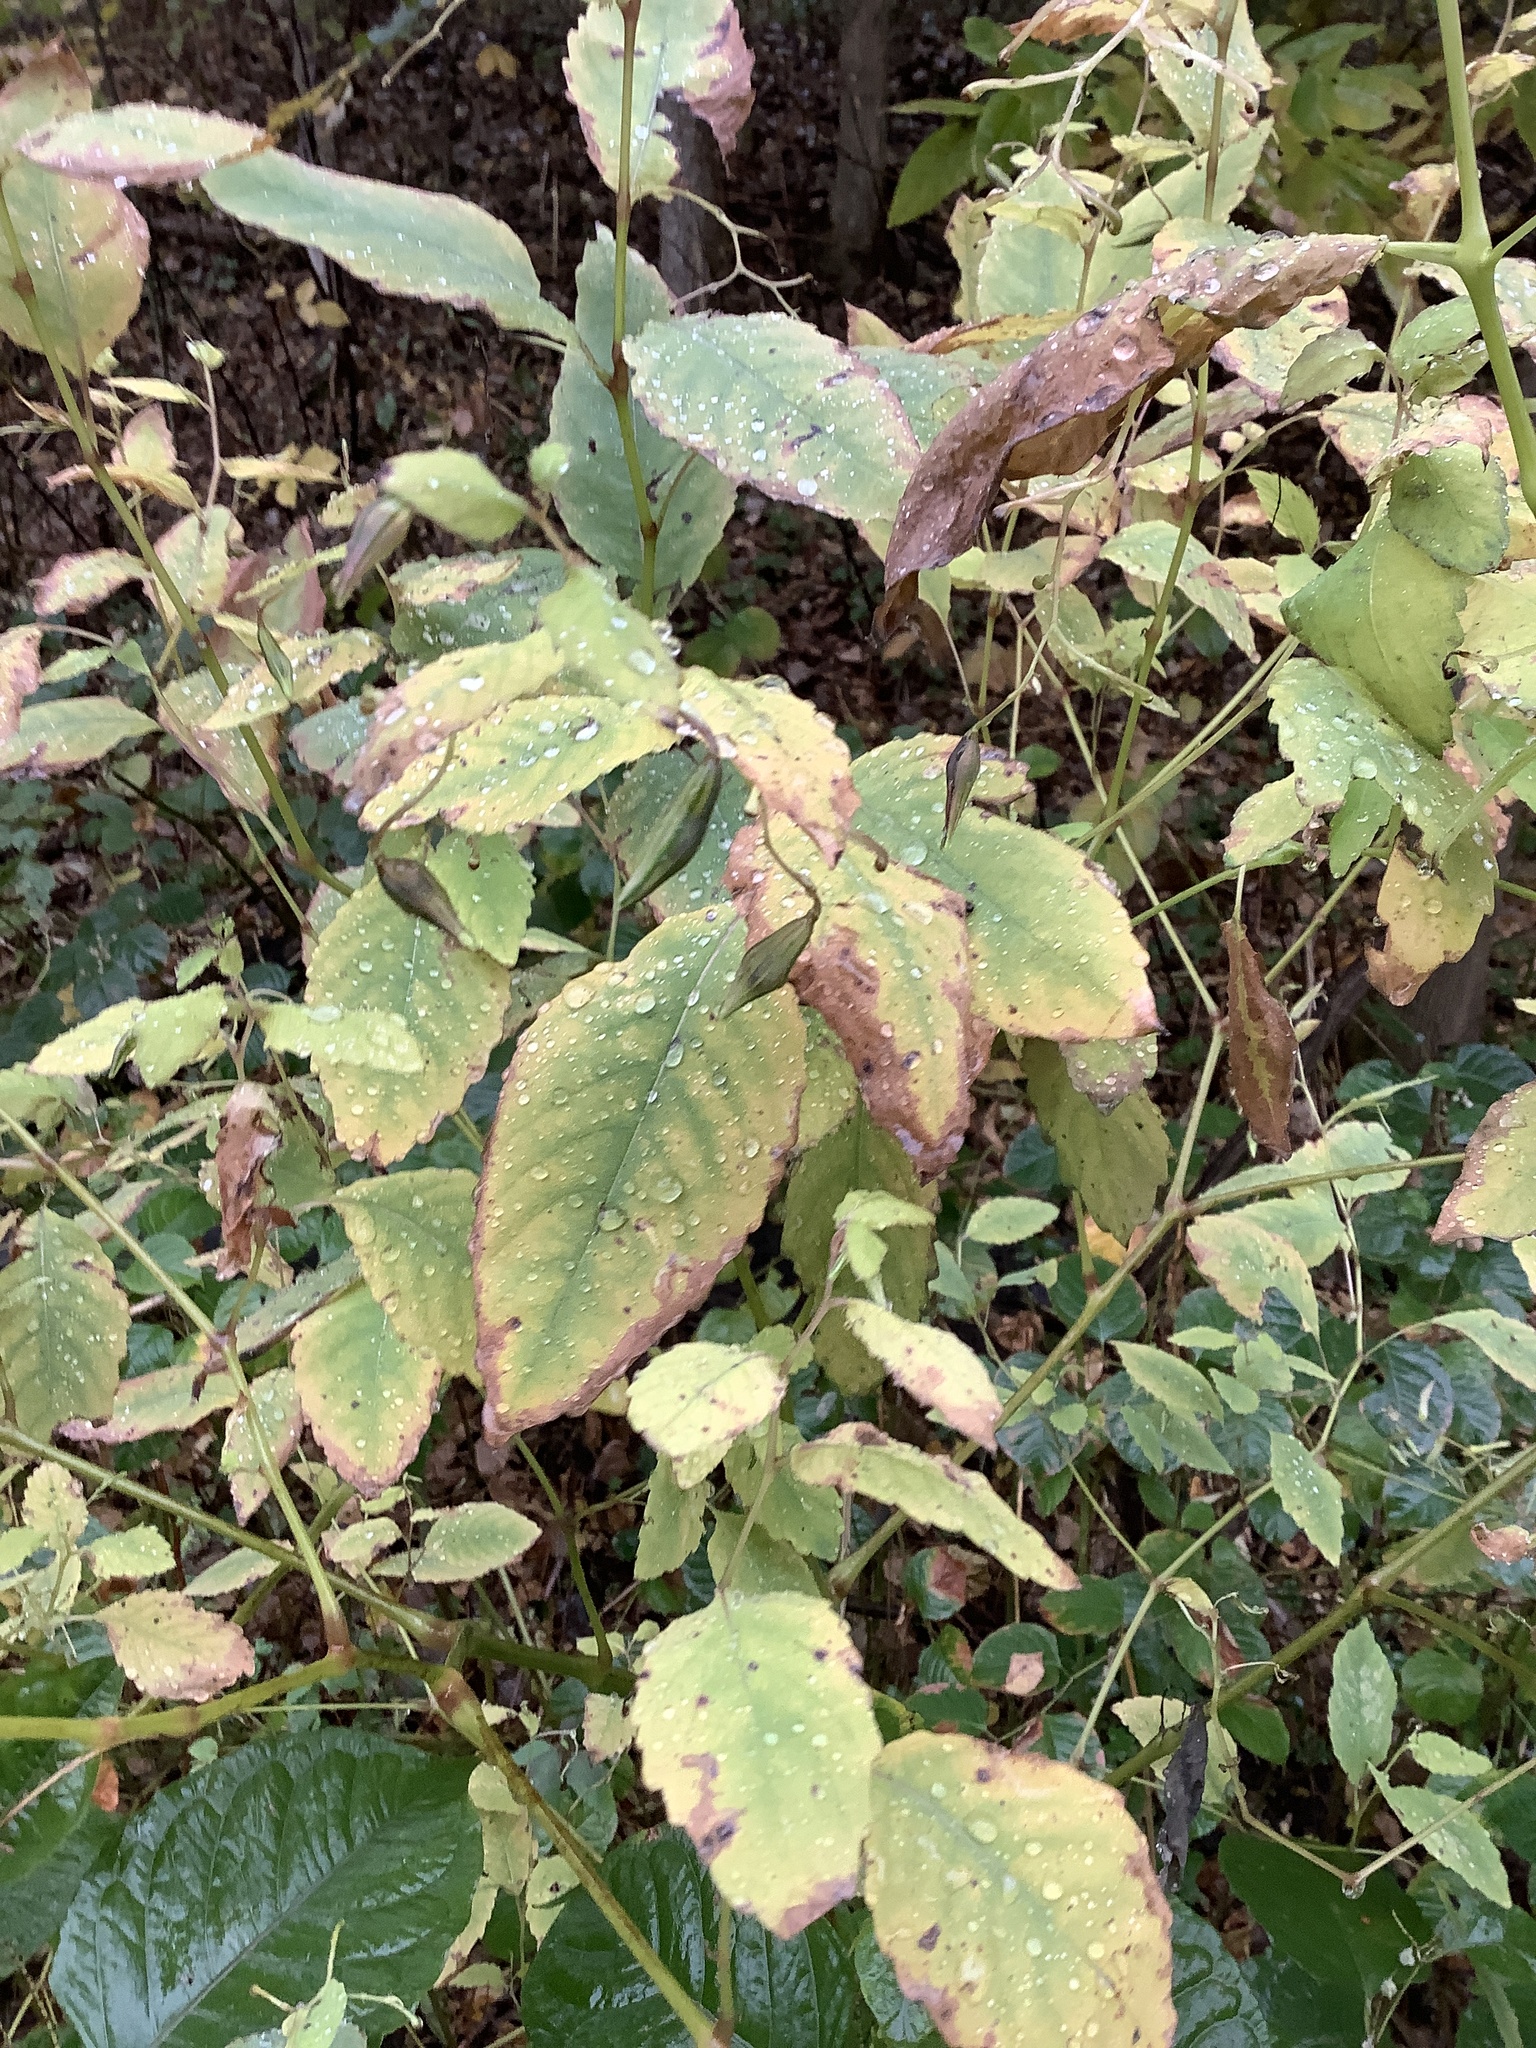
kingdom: Plantae
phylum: Tracheophyta
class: Magnoliopsida
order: Ericales
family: Balsaminaceae
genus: Impatiens
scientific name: Impatiens capensis
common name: Orange balsam
